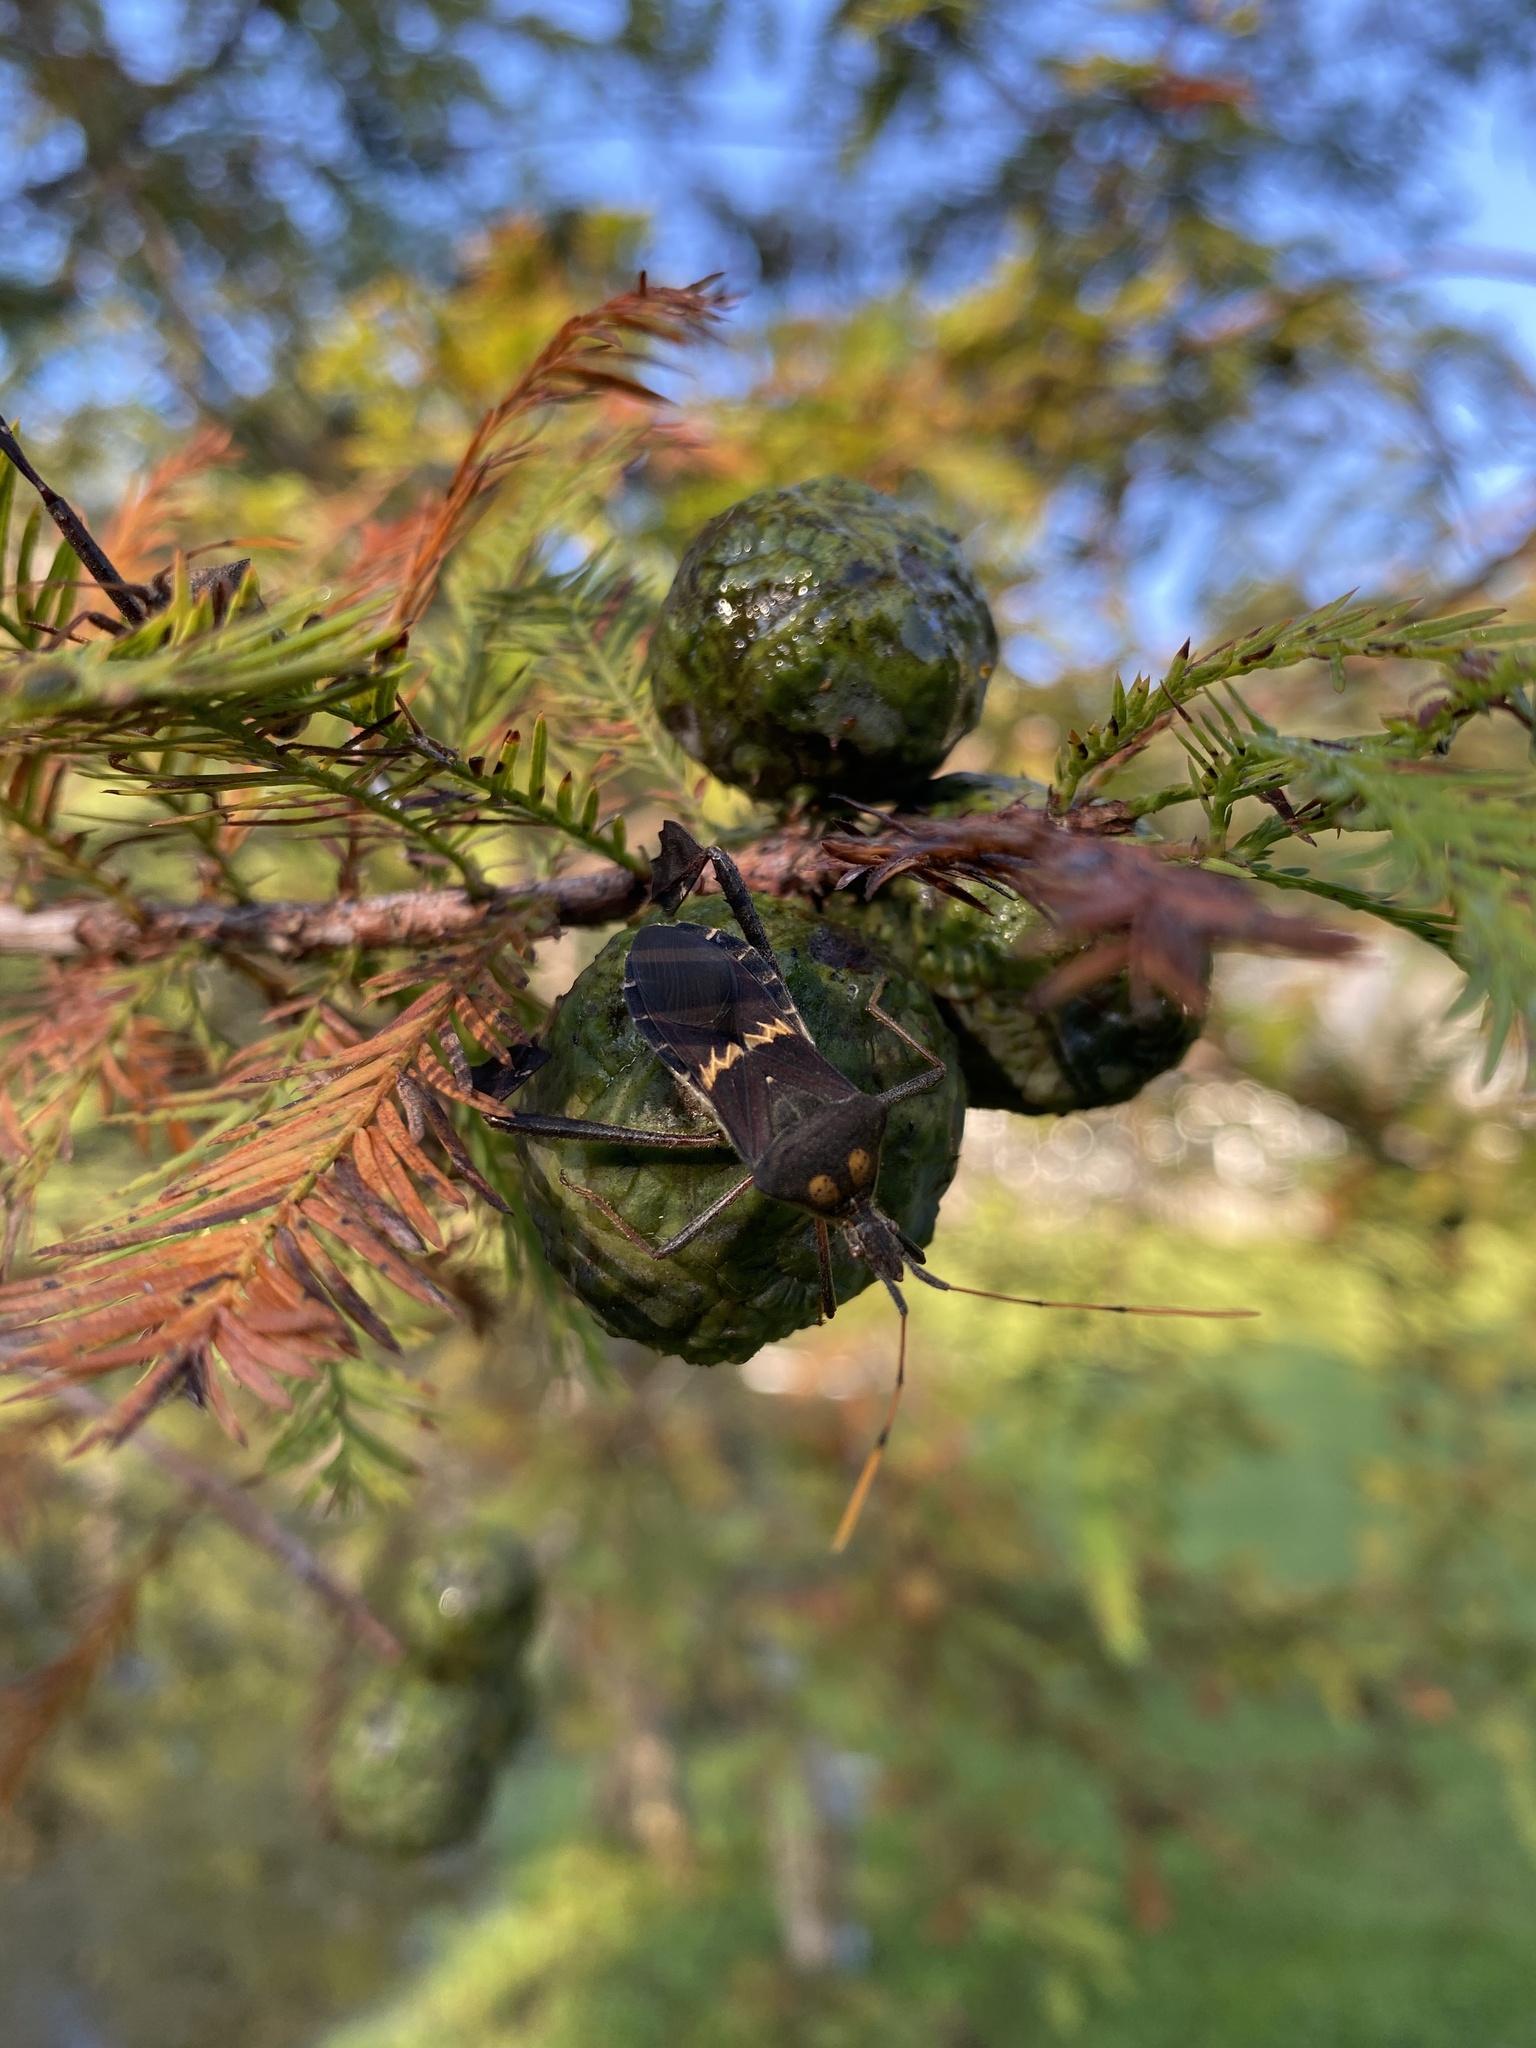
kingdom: Animalia
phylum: Arthropoda
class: Insecta
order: Hemiptera
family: Coreidae
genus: Leptoglossus
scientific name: Leptoglossus zonatus
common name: Large-legged bug
